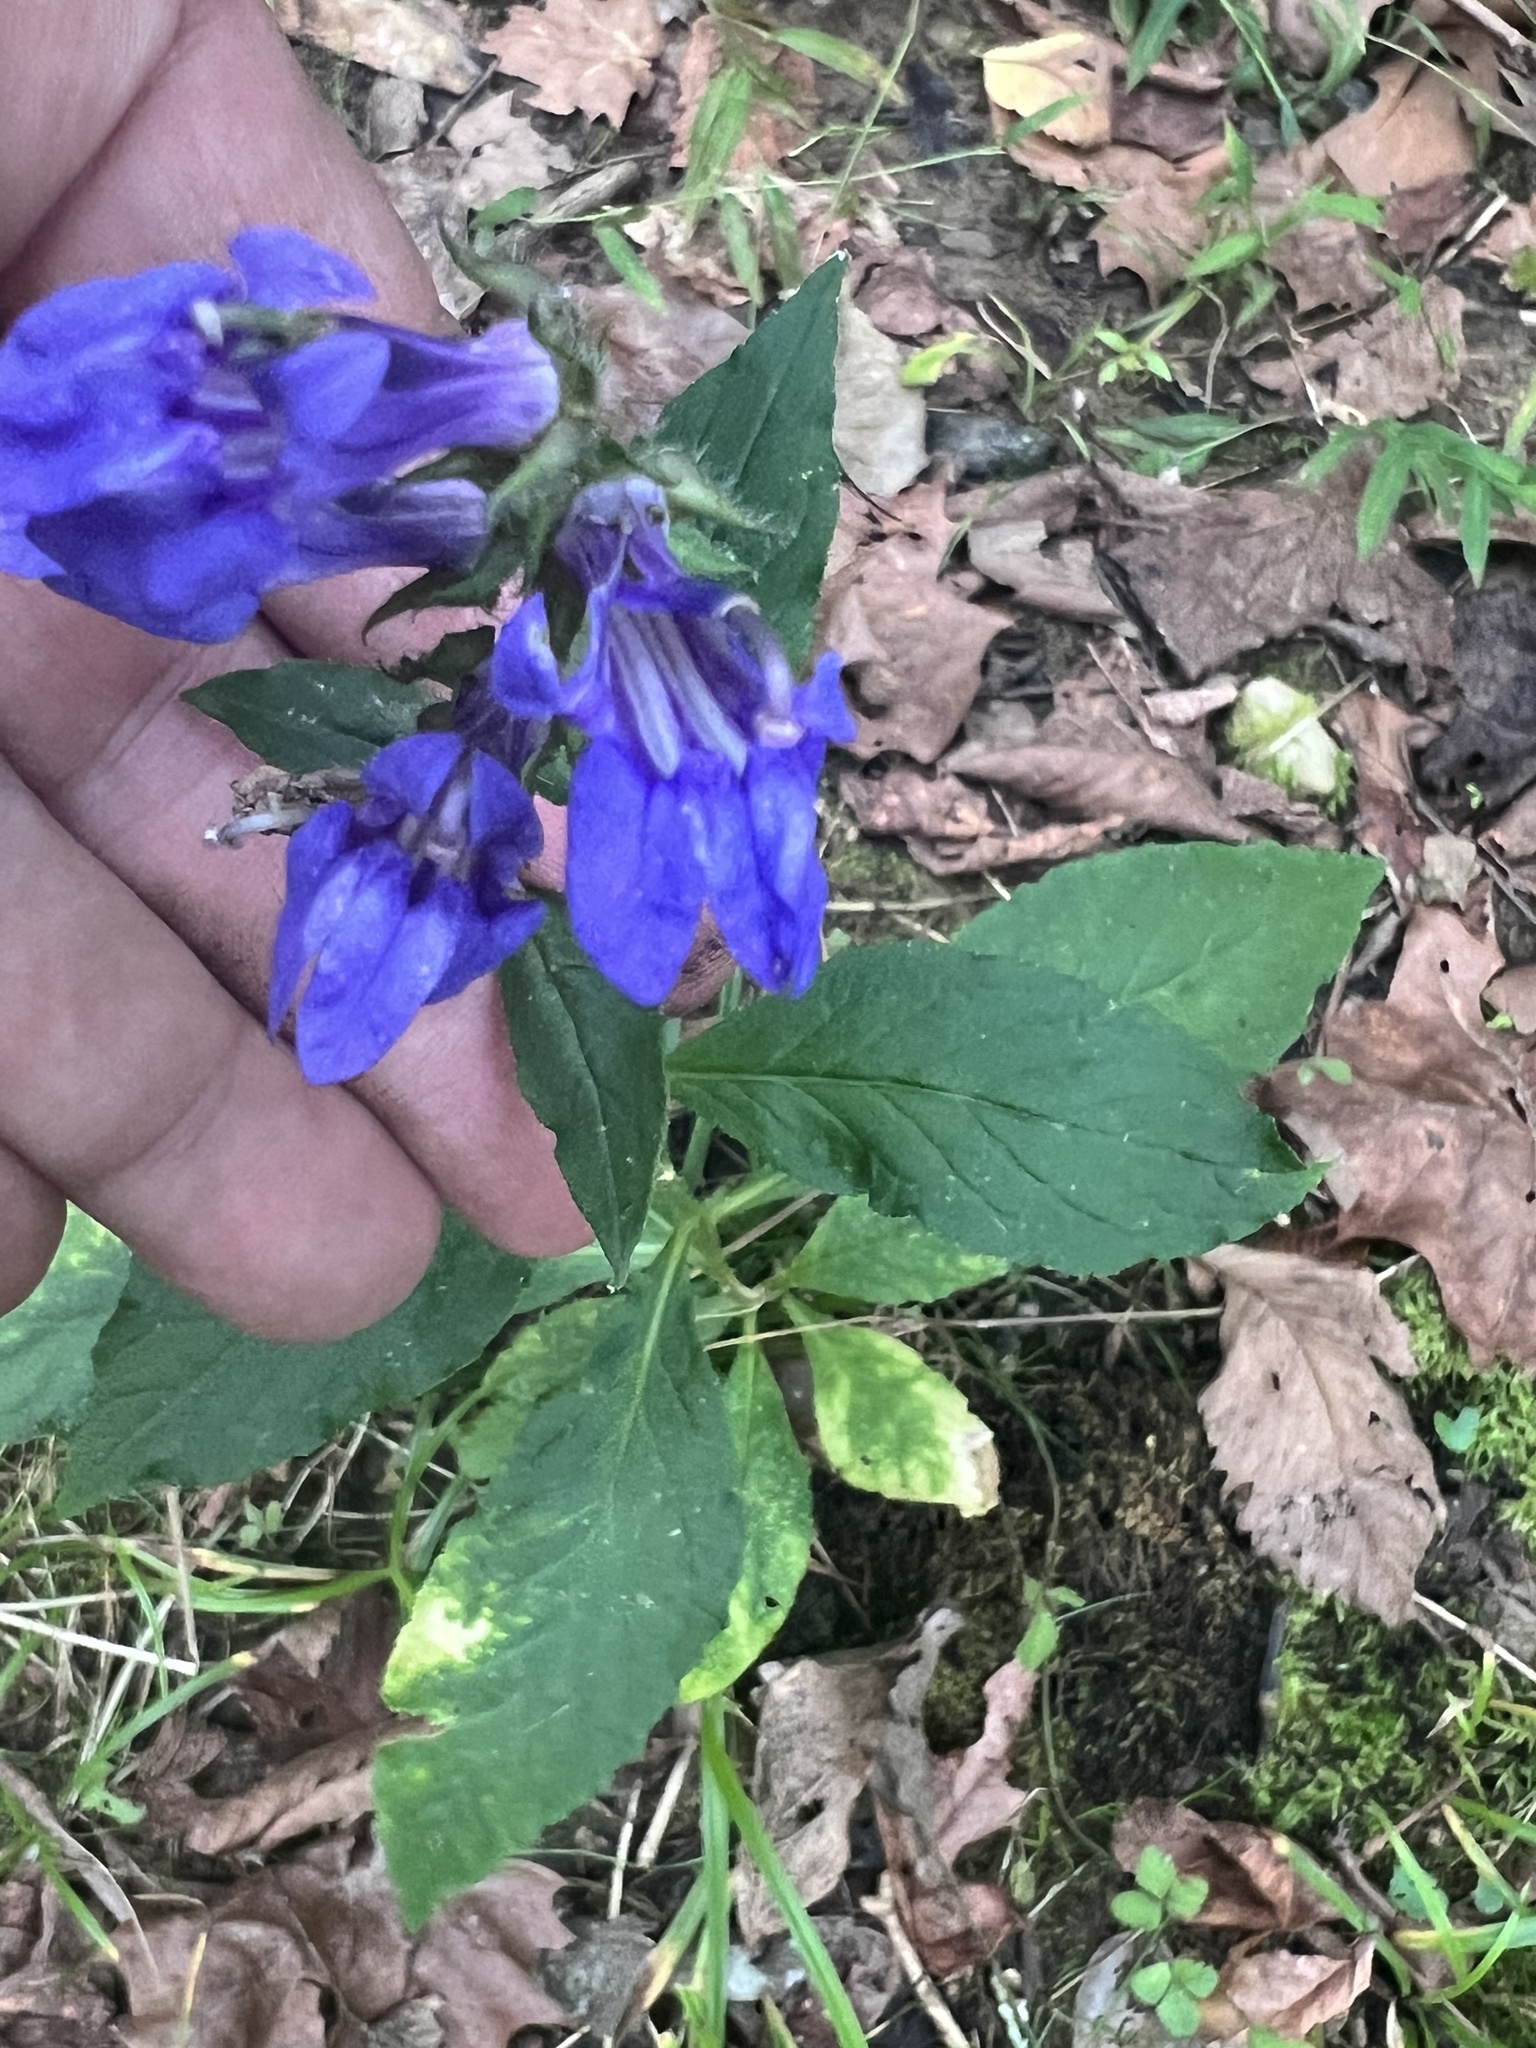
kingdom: Plantae
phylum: Tracheophyta
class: Magnoliopsida
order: Asterales
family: Campanulaceae
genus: Lobelia
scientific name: Lobelia siphilitica
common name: Great lobelia
